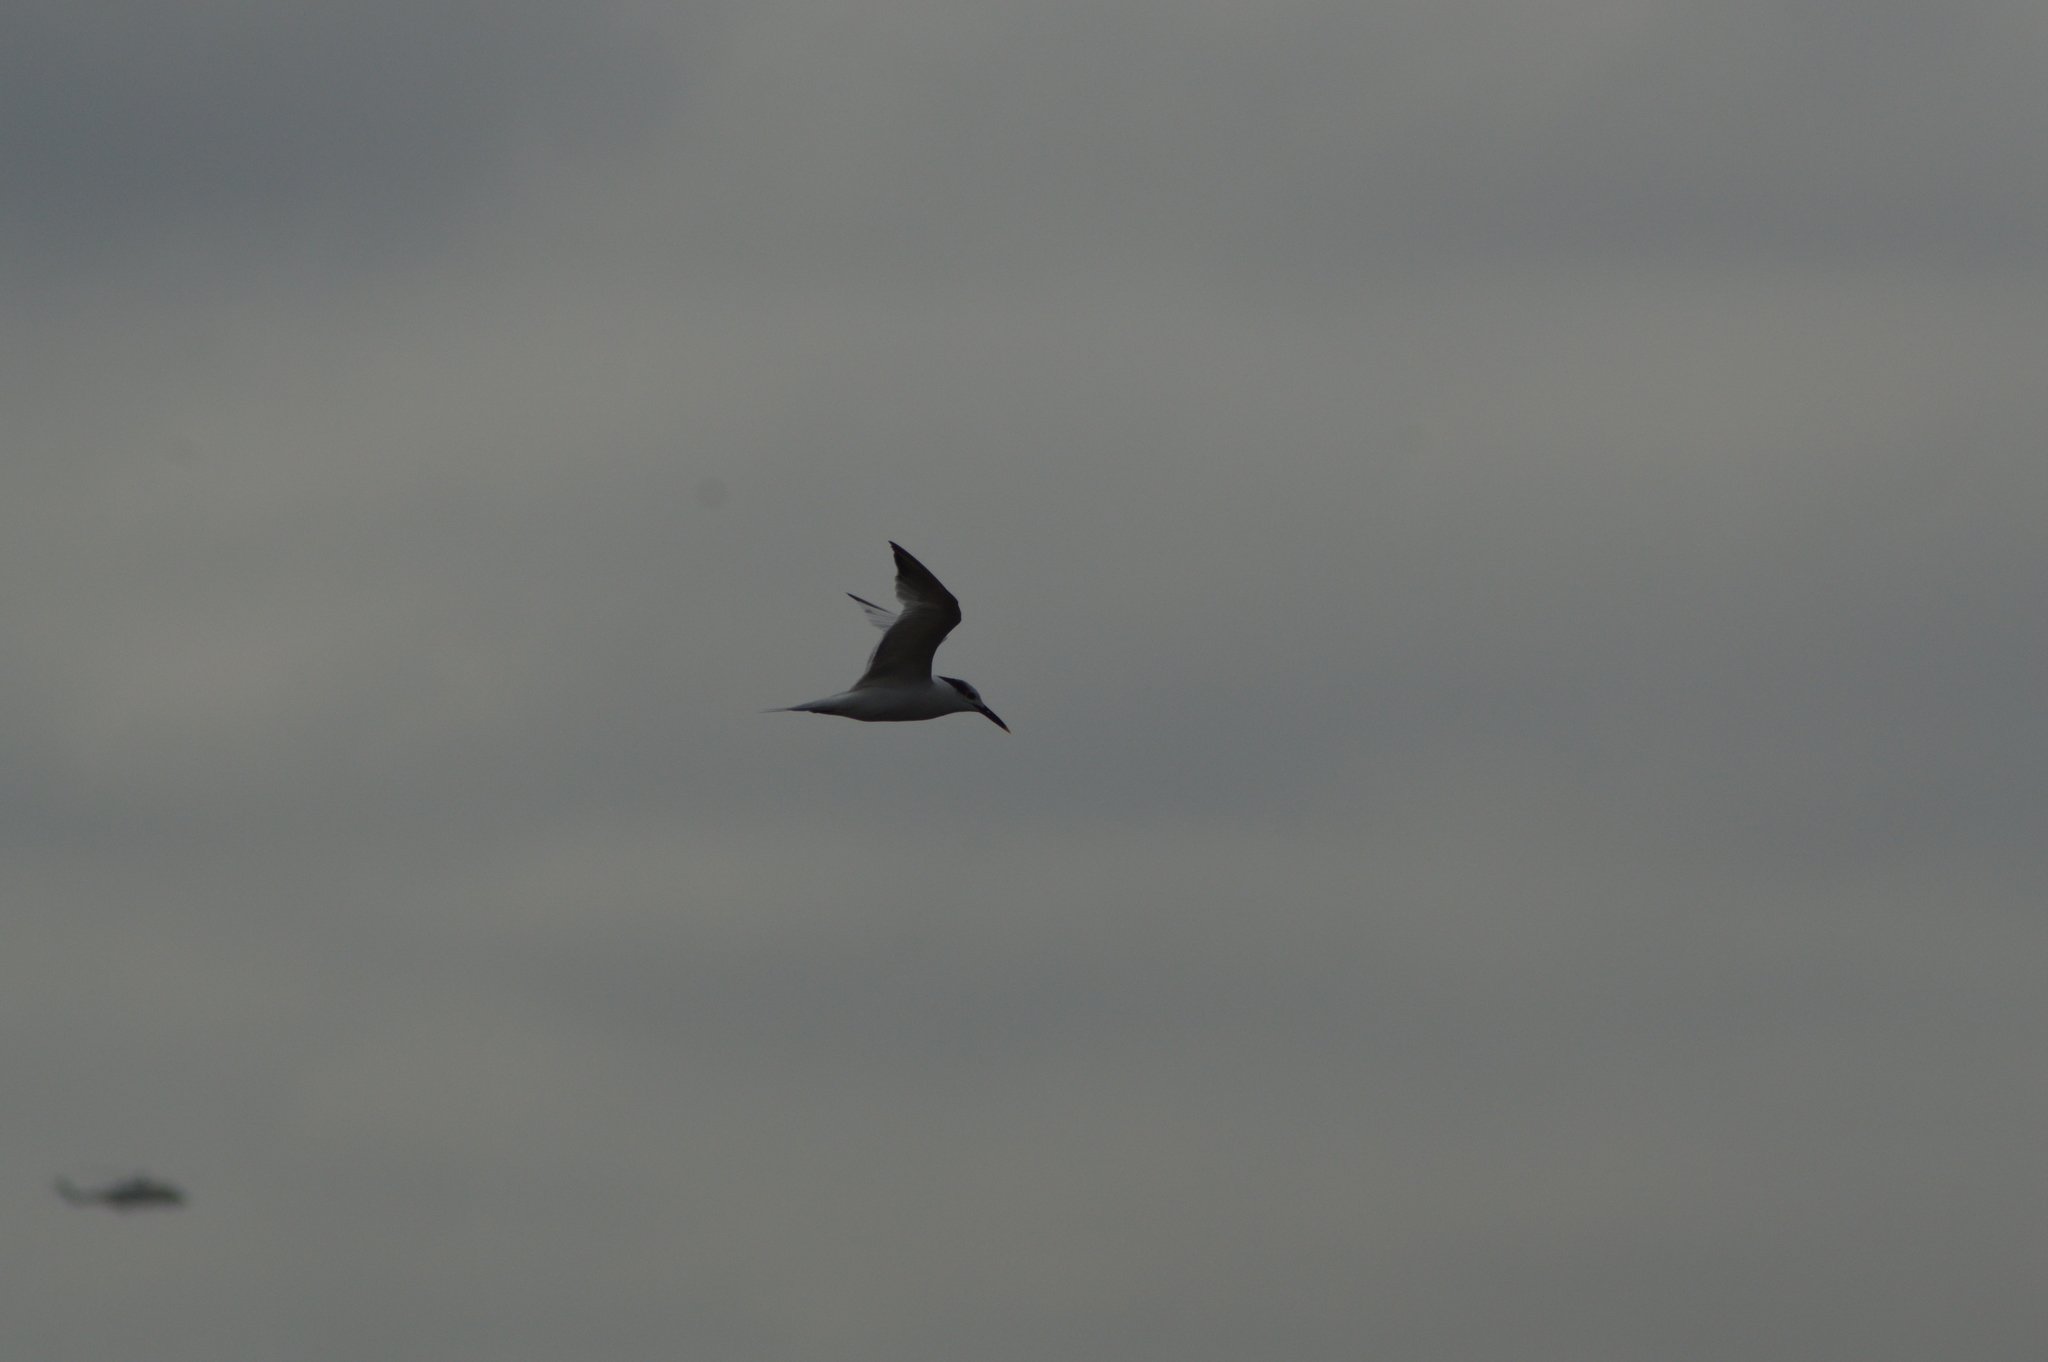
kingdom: Animalia
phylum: Chordata
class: Aves
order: Charadriiformes
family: Laridae
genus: Thalasseus
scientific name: Thalasseus sandvicensis
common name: Sandwich tern
